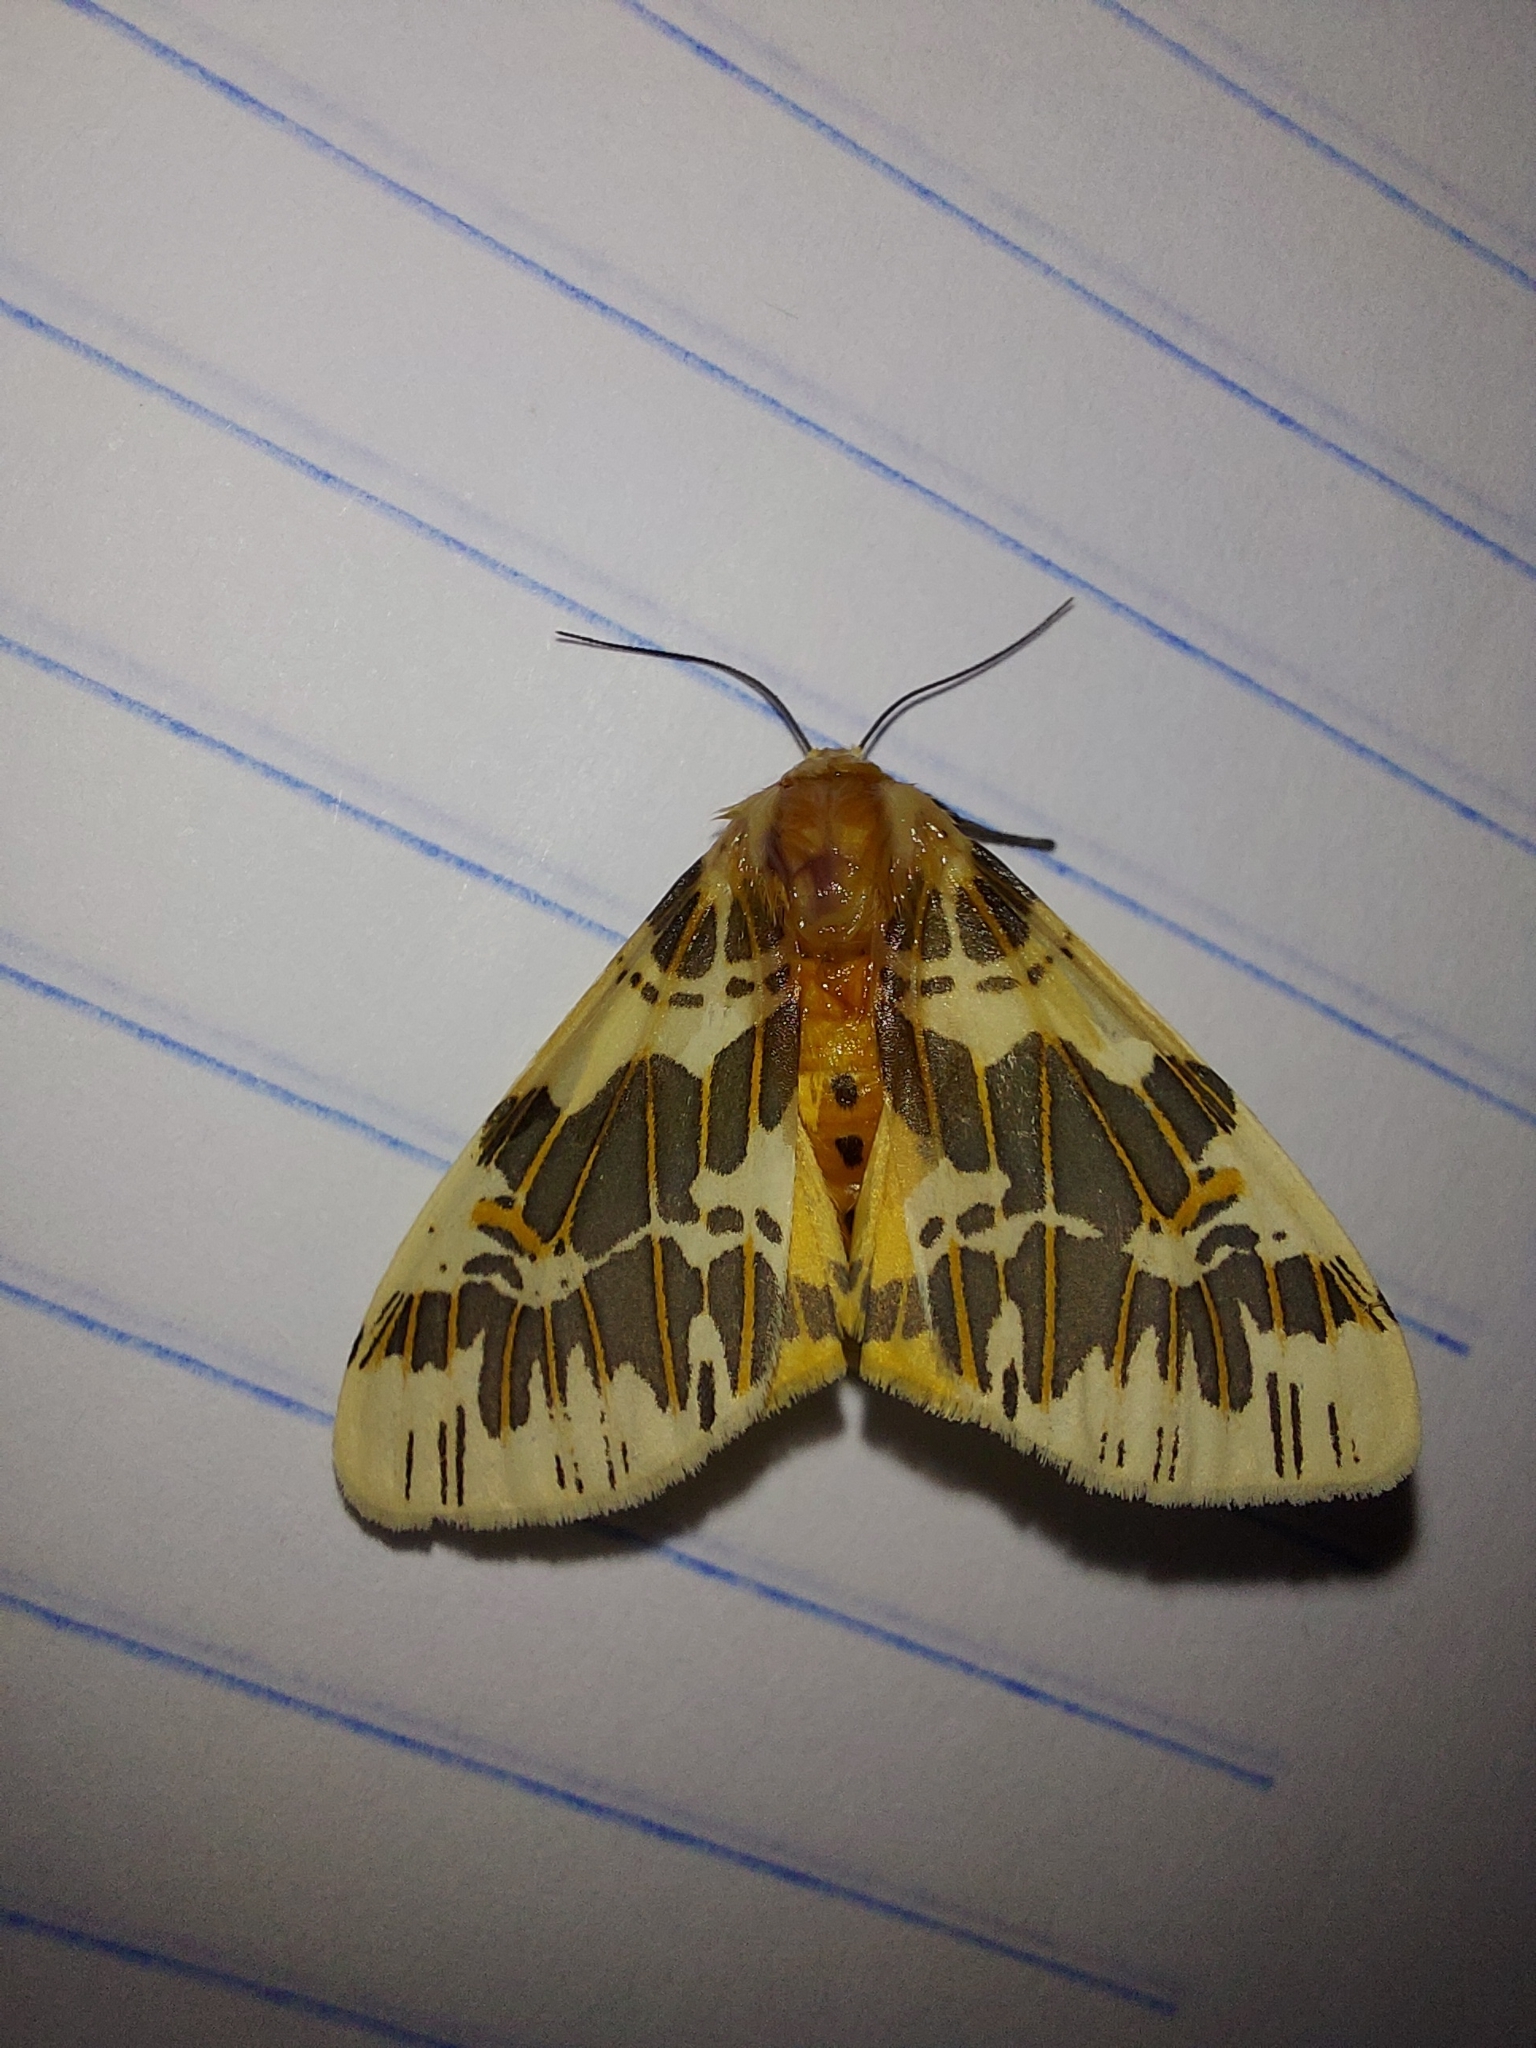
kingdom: Animalia
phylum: Arthropoda
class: Insecta
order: Lepidoptera
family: Erebidae
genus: Isia
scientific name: Isia intricata
